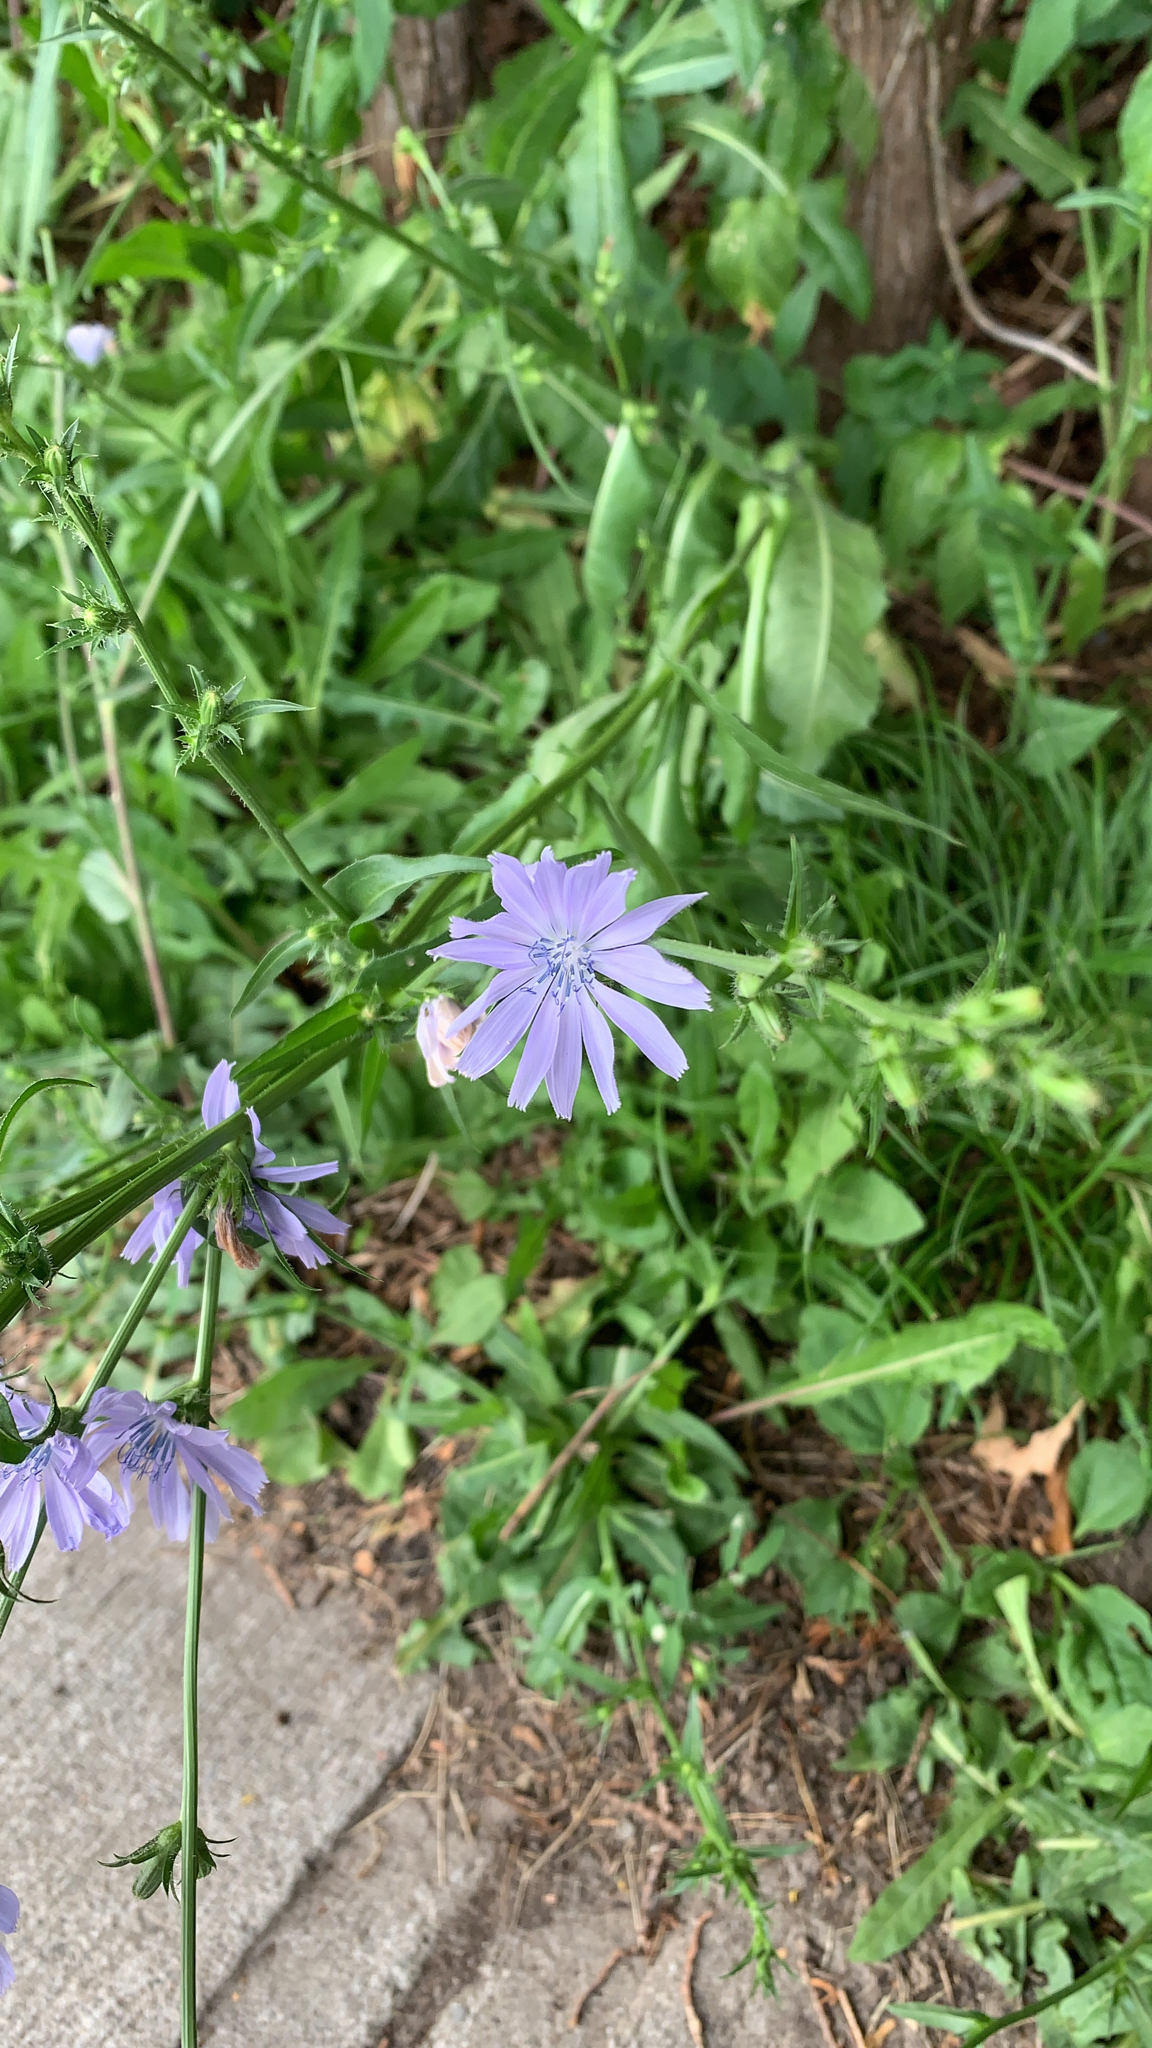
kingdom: Plantae
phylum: Tracheophyta
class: Magnoliopsida
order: Asterales
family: Asteraceae
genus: Cichorium
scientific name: Cichorium intybus
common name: Chicory
